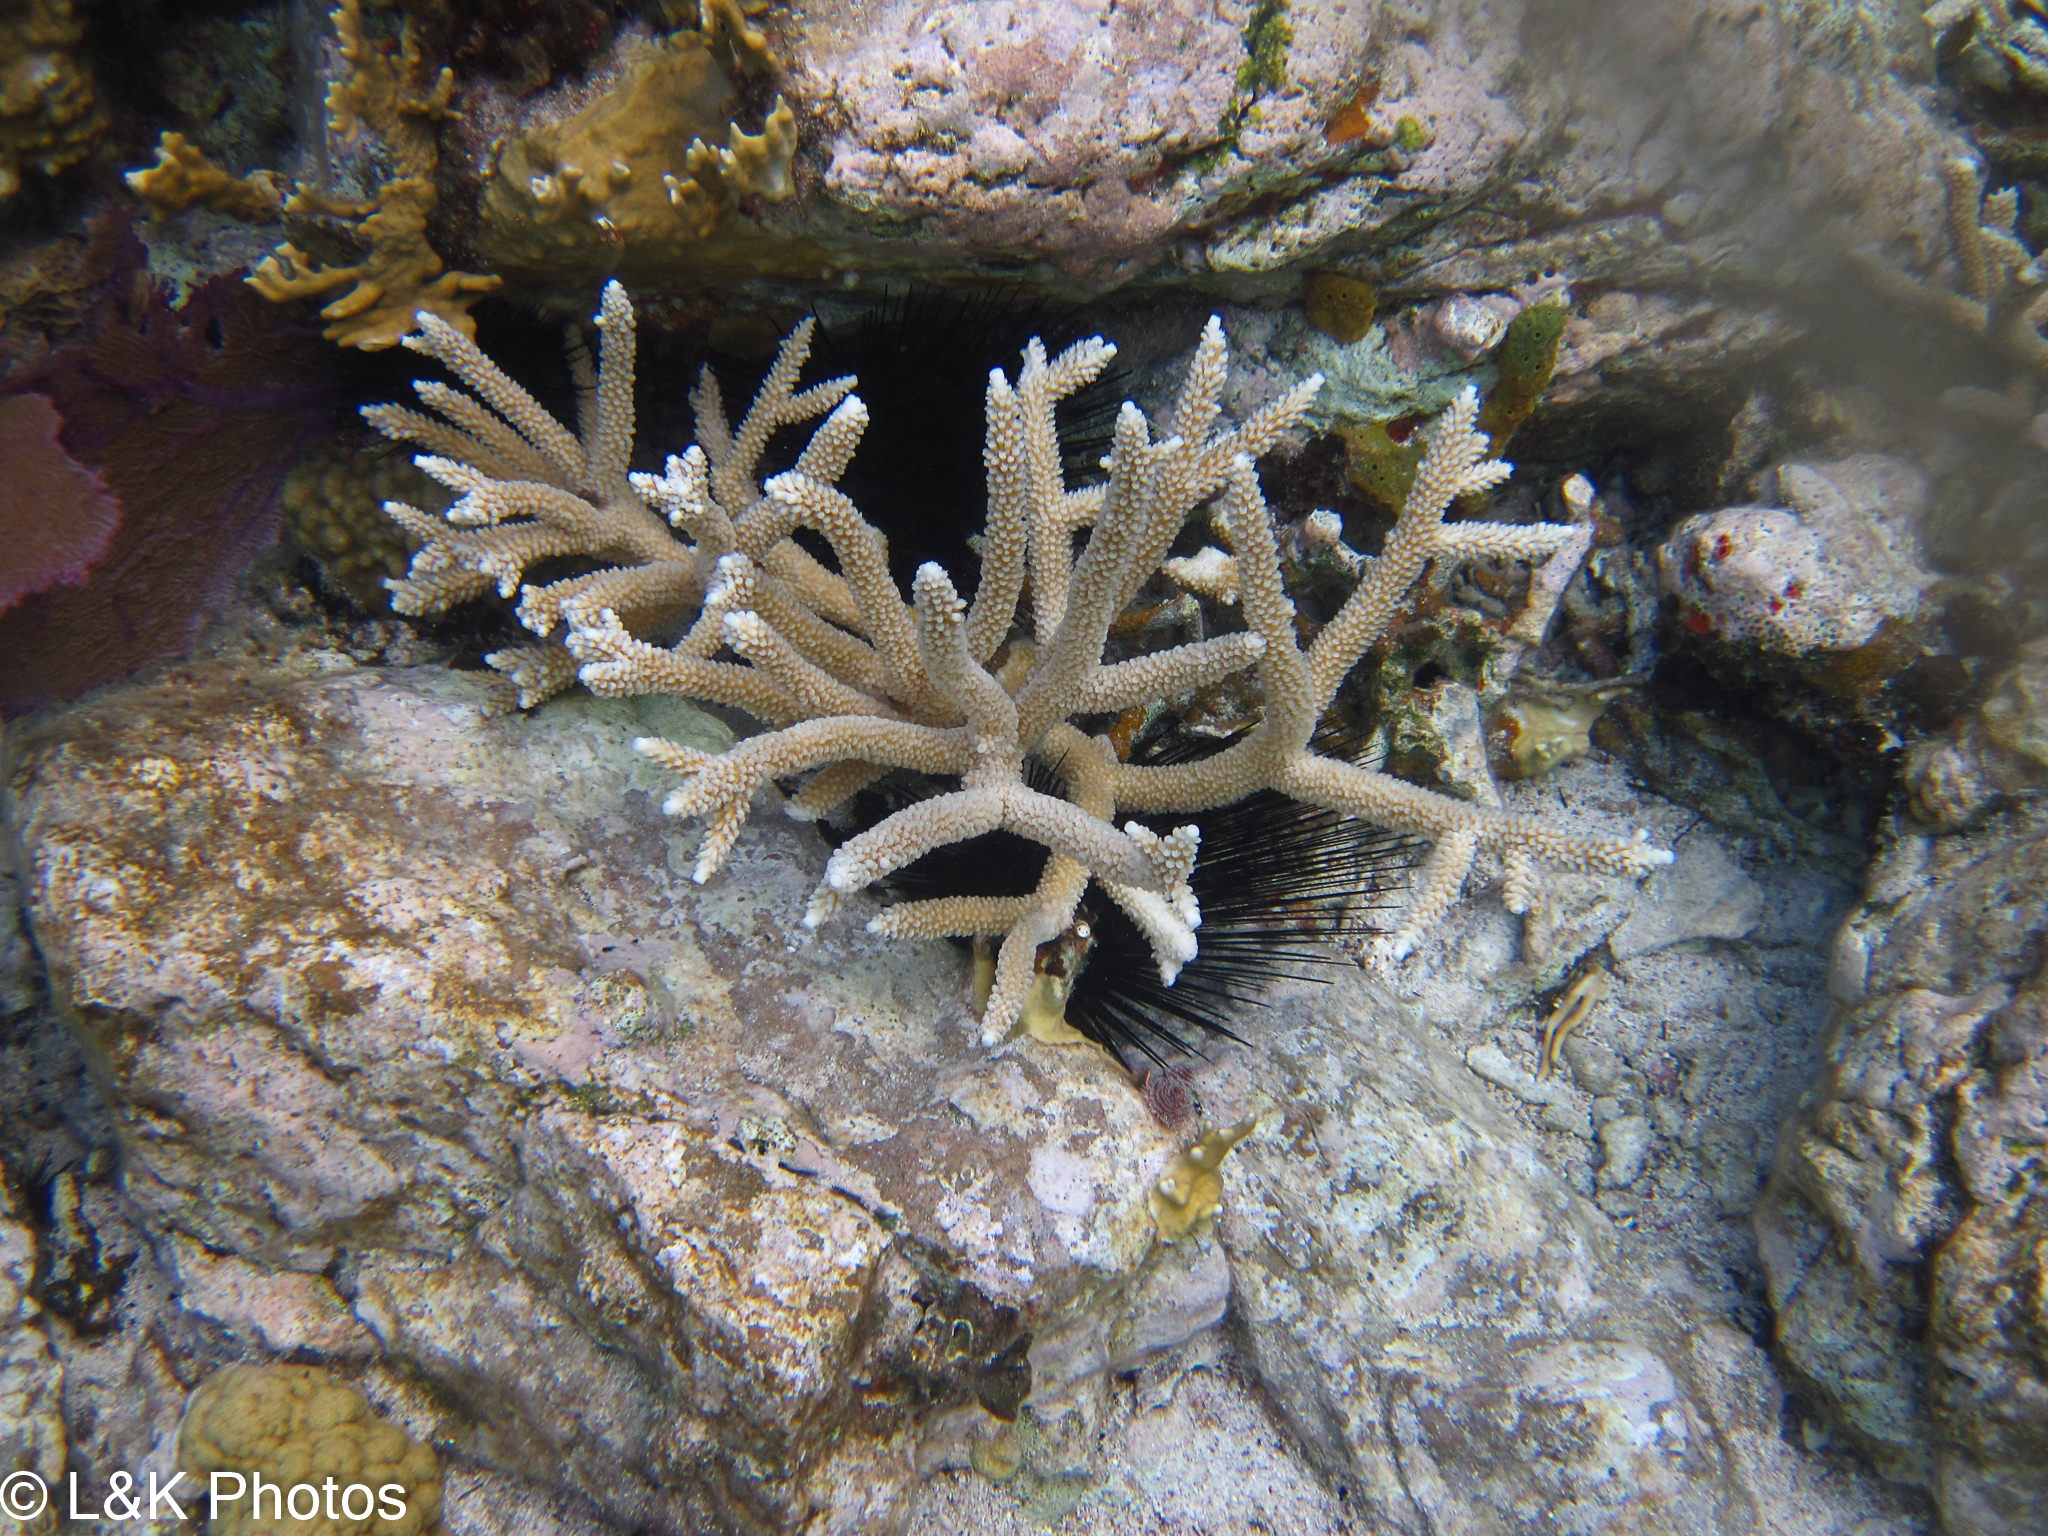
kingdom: Animalia
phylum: Cnidaria
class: Anthozoa
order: Scleractinia
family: Acroporidae
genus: Acropora
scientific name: Acropora cervicornis
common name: Staghorn coral
